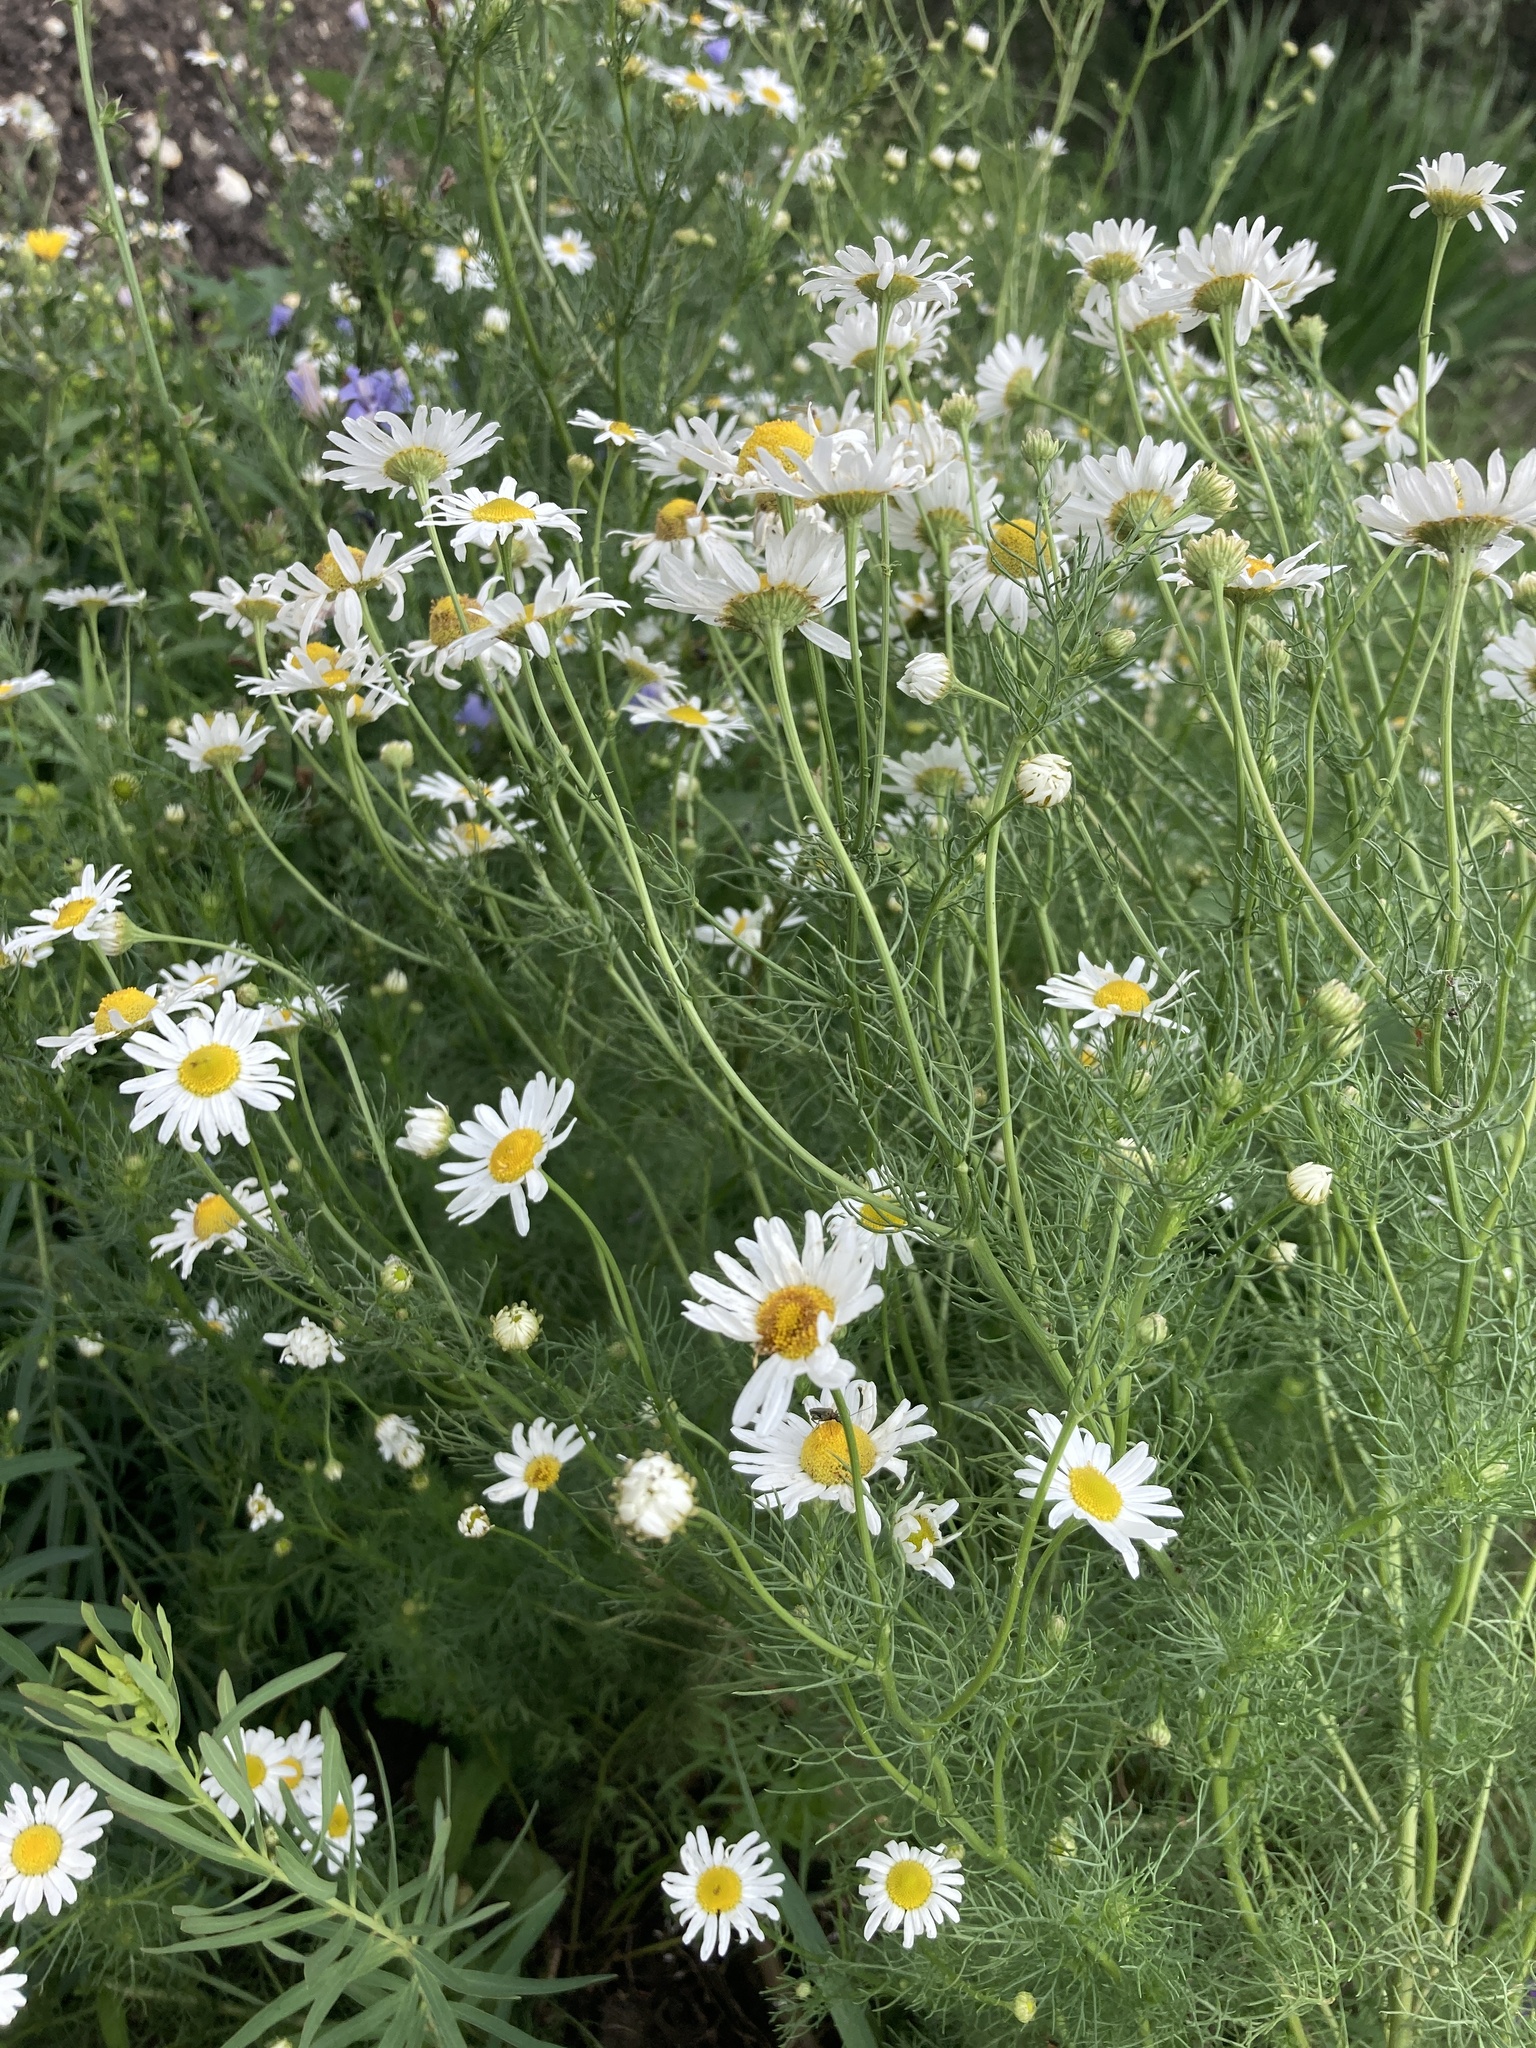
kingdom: Plantae
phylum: Tracheophyta
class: Magnoliopsida
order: Asterales
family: Asteraceae
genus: Tripleurospermum
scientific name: Tripleurospermum inodorum
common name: Scentless mayweed
